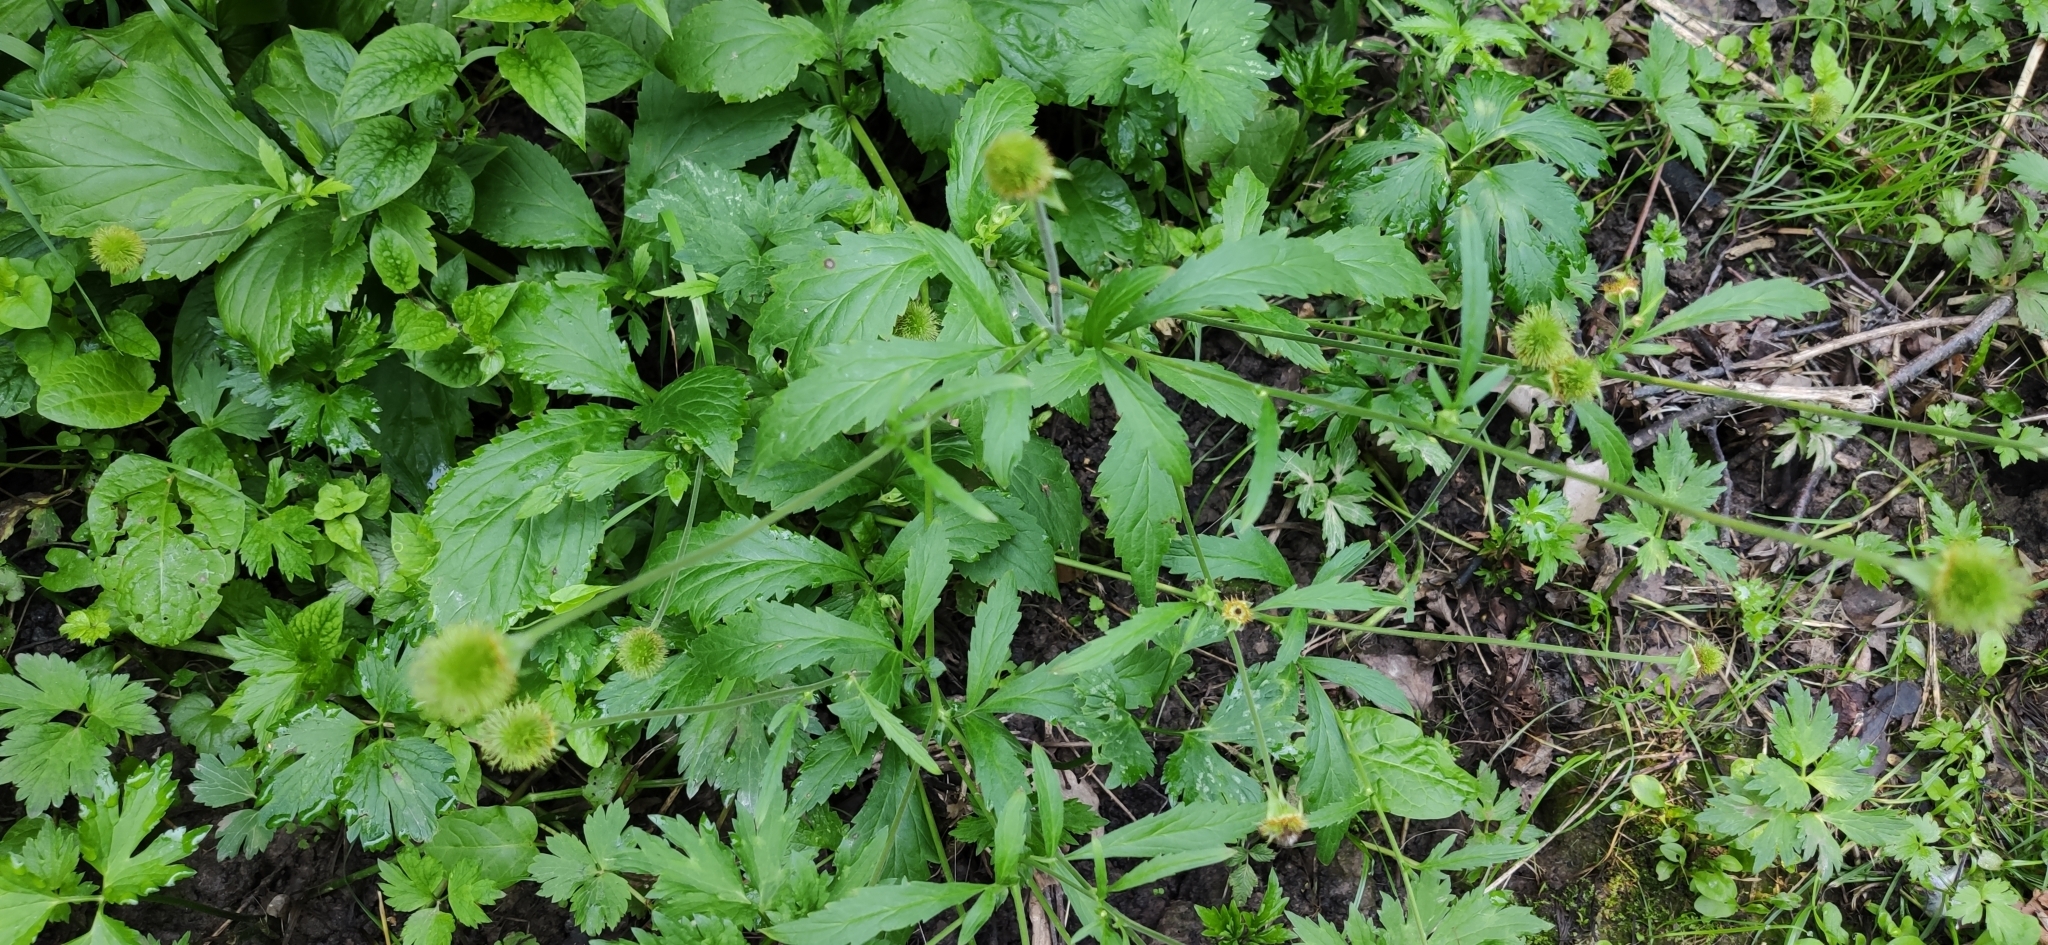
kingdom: Plantae
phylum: Tracheophyta
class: Magnoliopsida
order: Rosales
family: Rosaceae
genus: Geum
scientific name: Geum aleppicum
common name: Yellow avens
